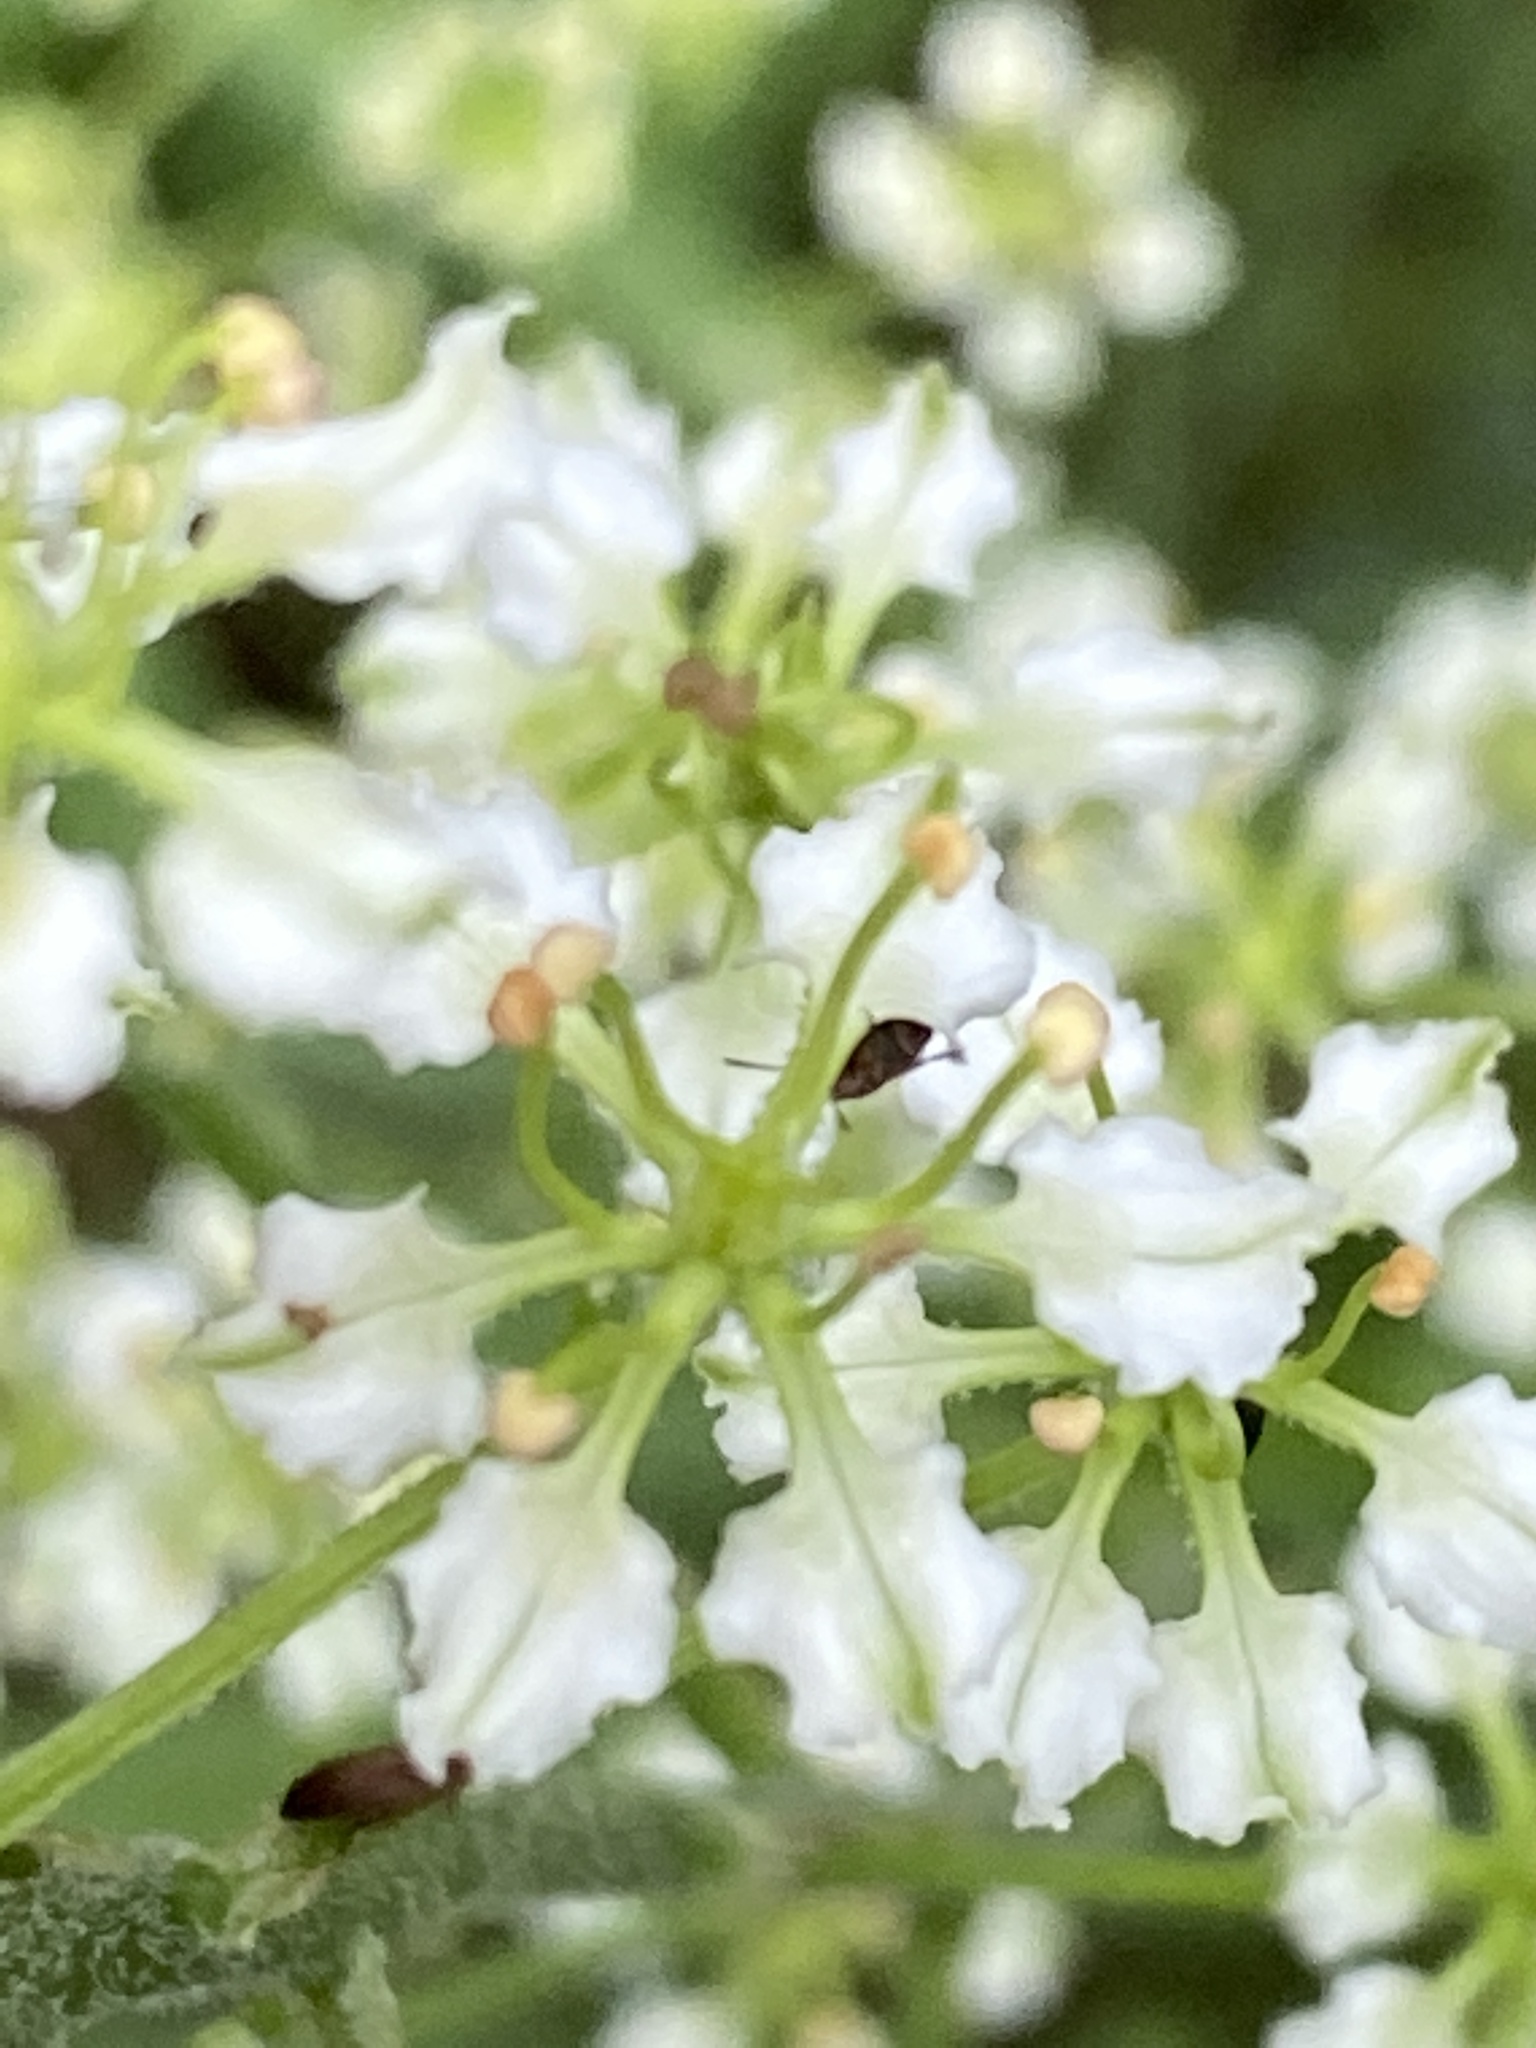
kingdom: Plantae
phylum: Tracheophyta
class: Liliopsida
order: Liliales
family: Melanthiaceae
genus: Veratrum
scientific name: Veratrum hybridum
